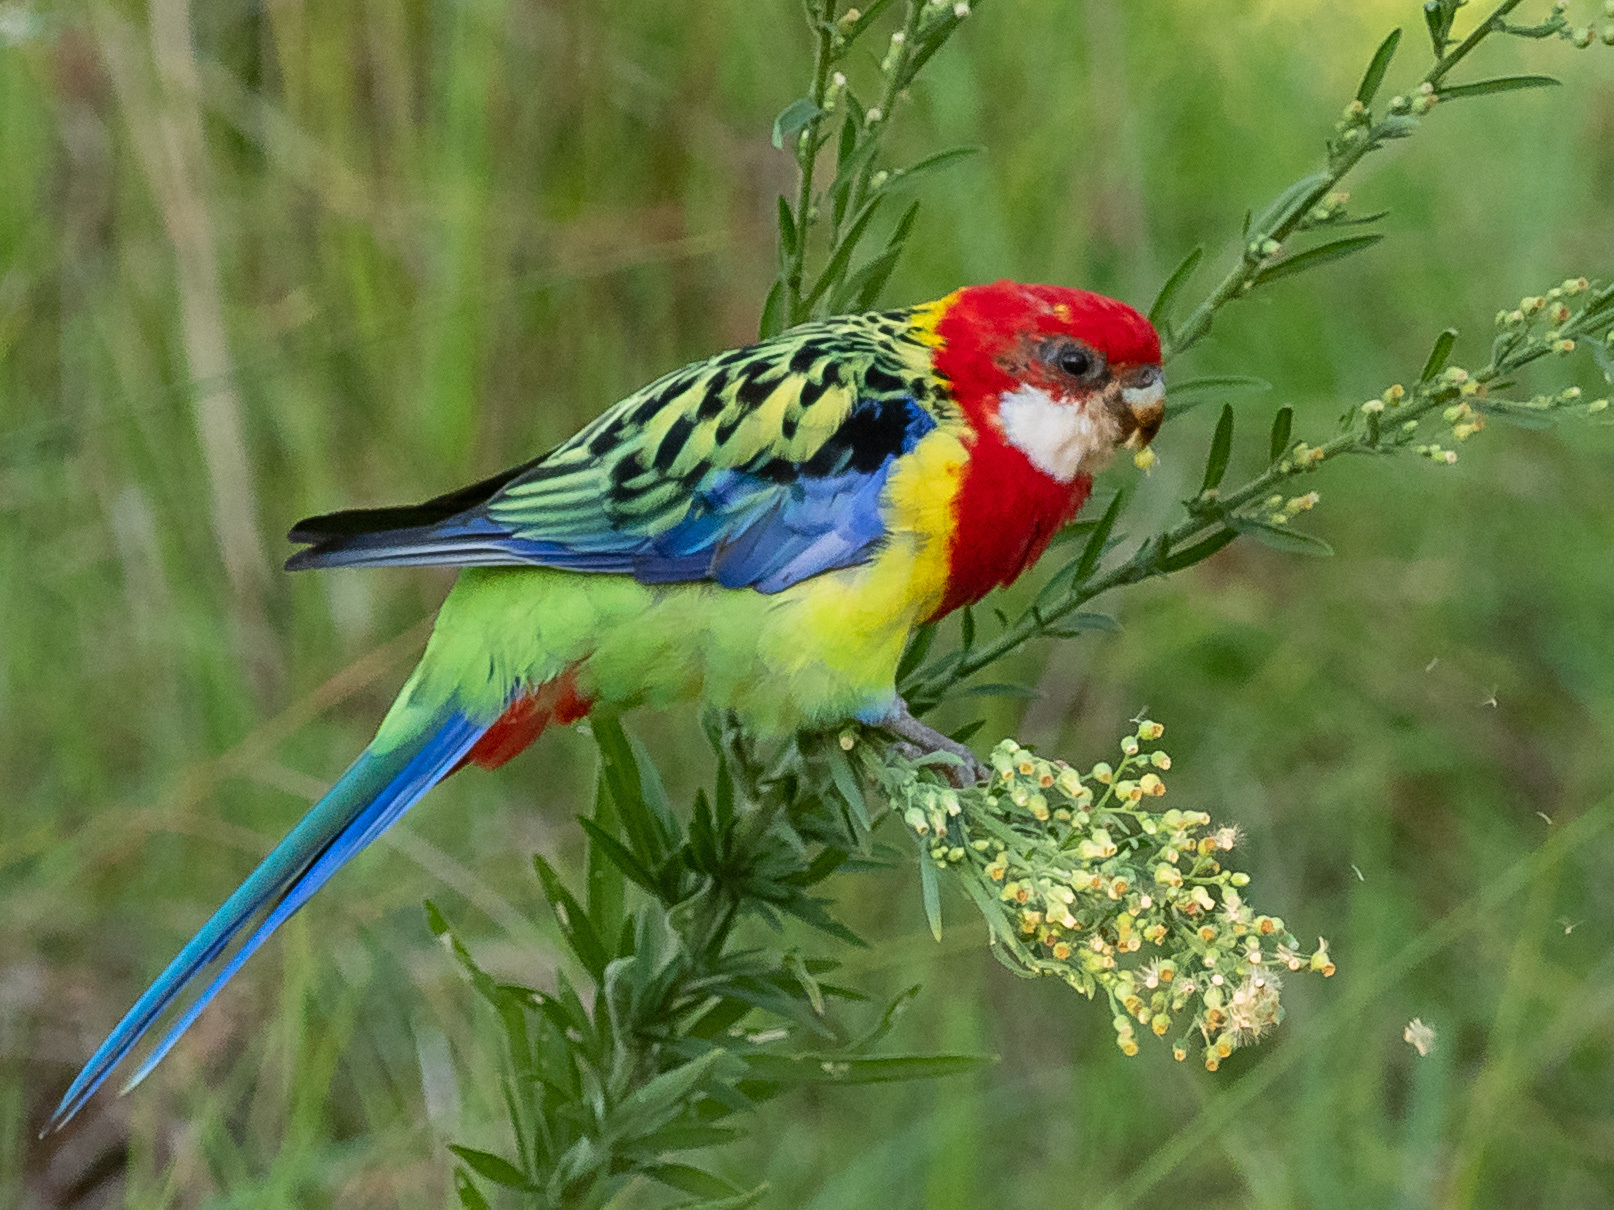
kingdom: Animalia
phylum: Chordata
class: Aves
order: Psittaciformes
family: Psittacidae
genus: Platycercus
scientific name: Platycercus eximius
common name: Eastern rosella
